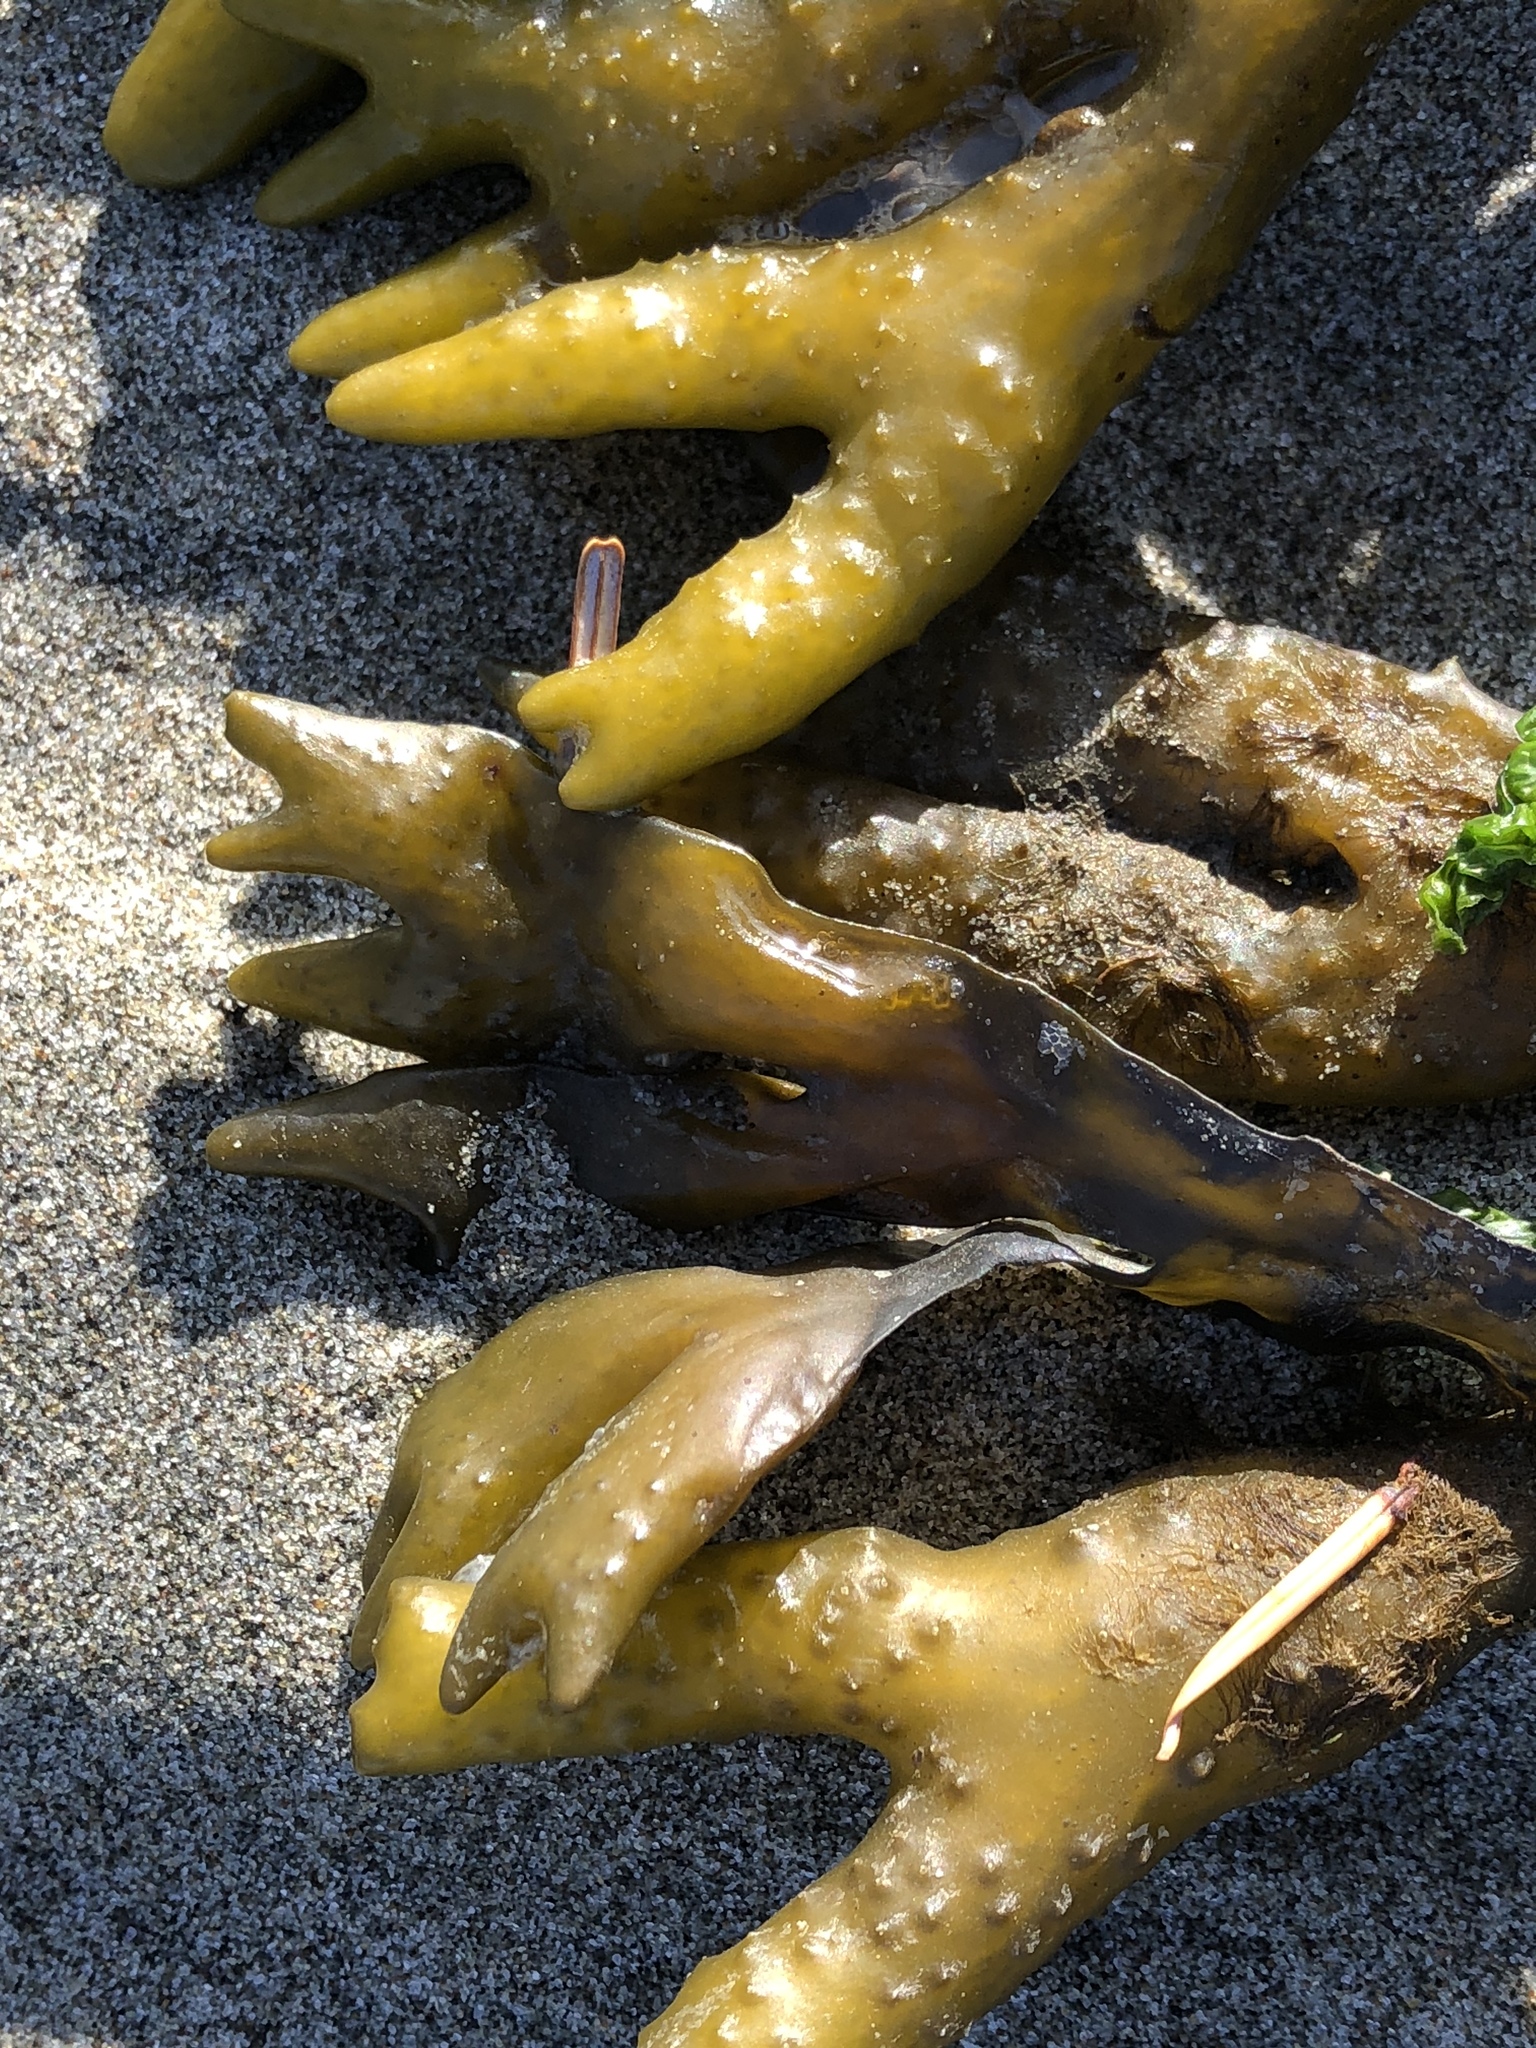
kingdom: Chromista
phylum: Ochrophyta
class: Phaeophyceae
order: Fucales
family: Fucaceae
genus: Fucus
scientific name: Fucus distichus
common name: Rockweed
